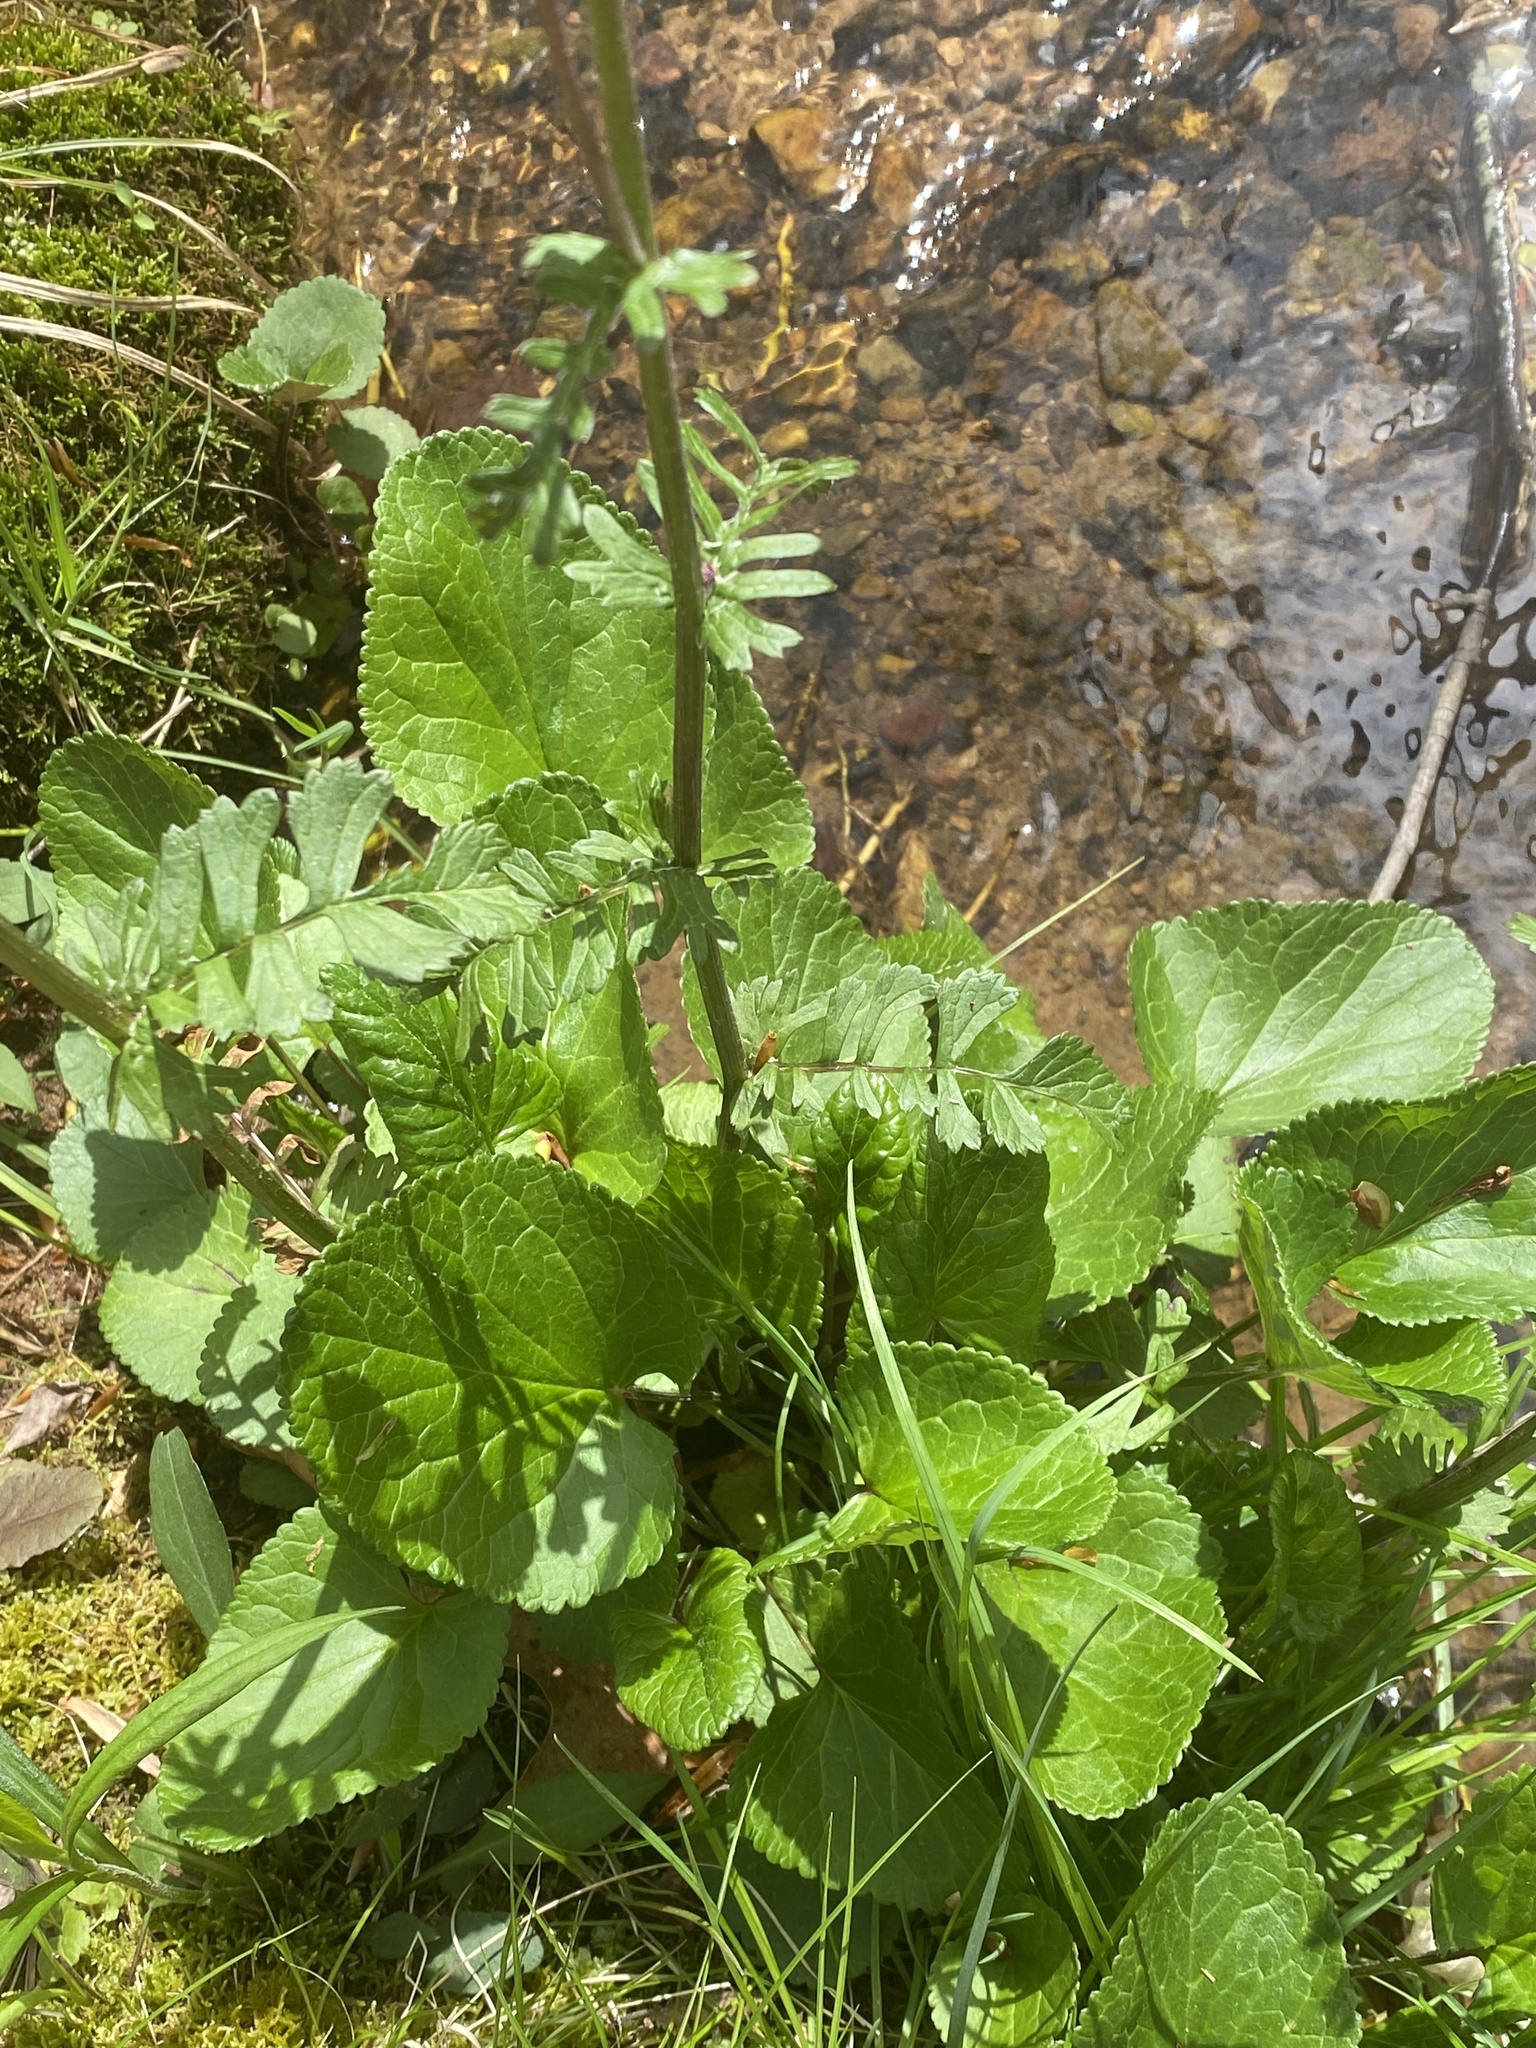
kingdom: Plantae
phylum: Tracheophyta
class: Magnoliopsida
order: Asterales
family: Asteraceae
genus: Packera
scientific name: Packera aurea
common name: Golden groundsel
